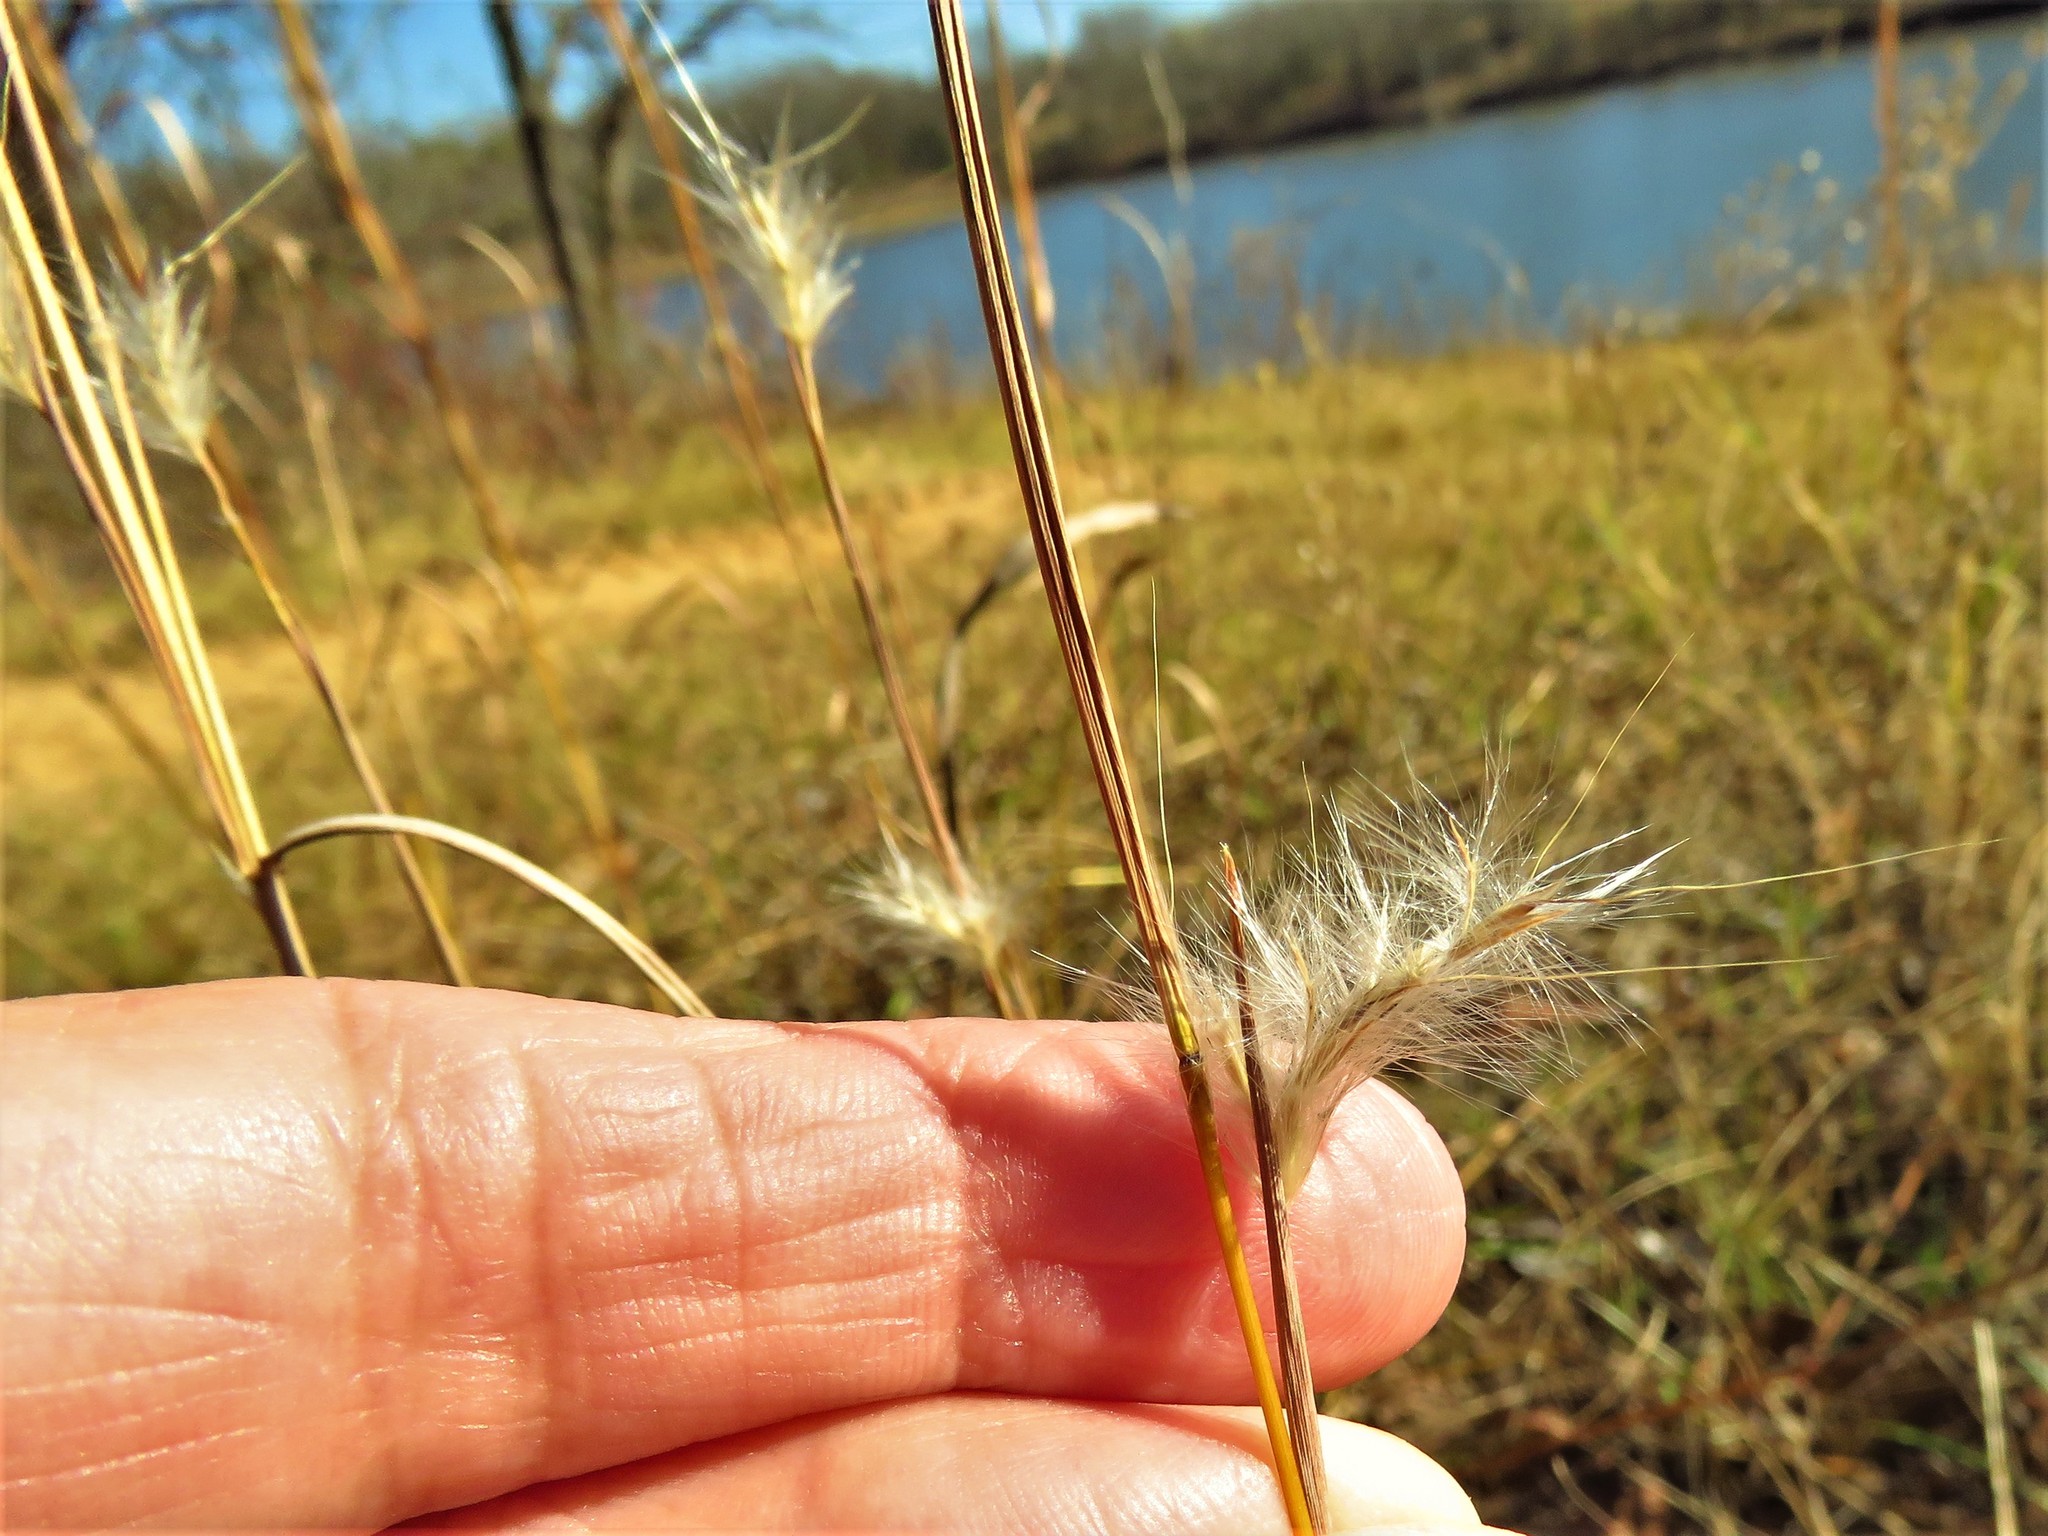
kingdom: Plantae
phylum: Tracheophyta
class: Liliopsida
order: Poales
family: Poaceae
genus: Andropogon
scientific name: Andropogon ternarius
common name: Split bluestem
